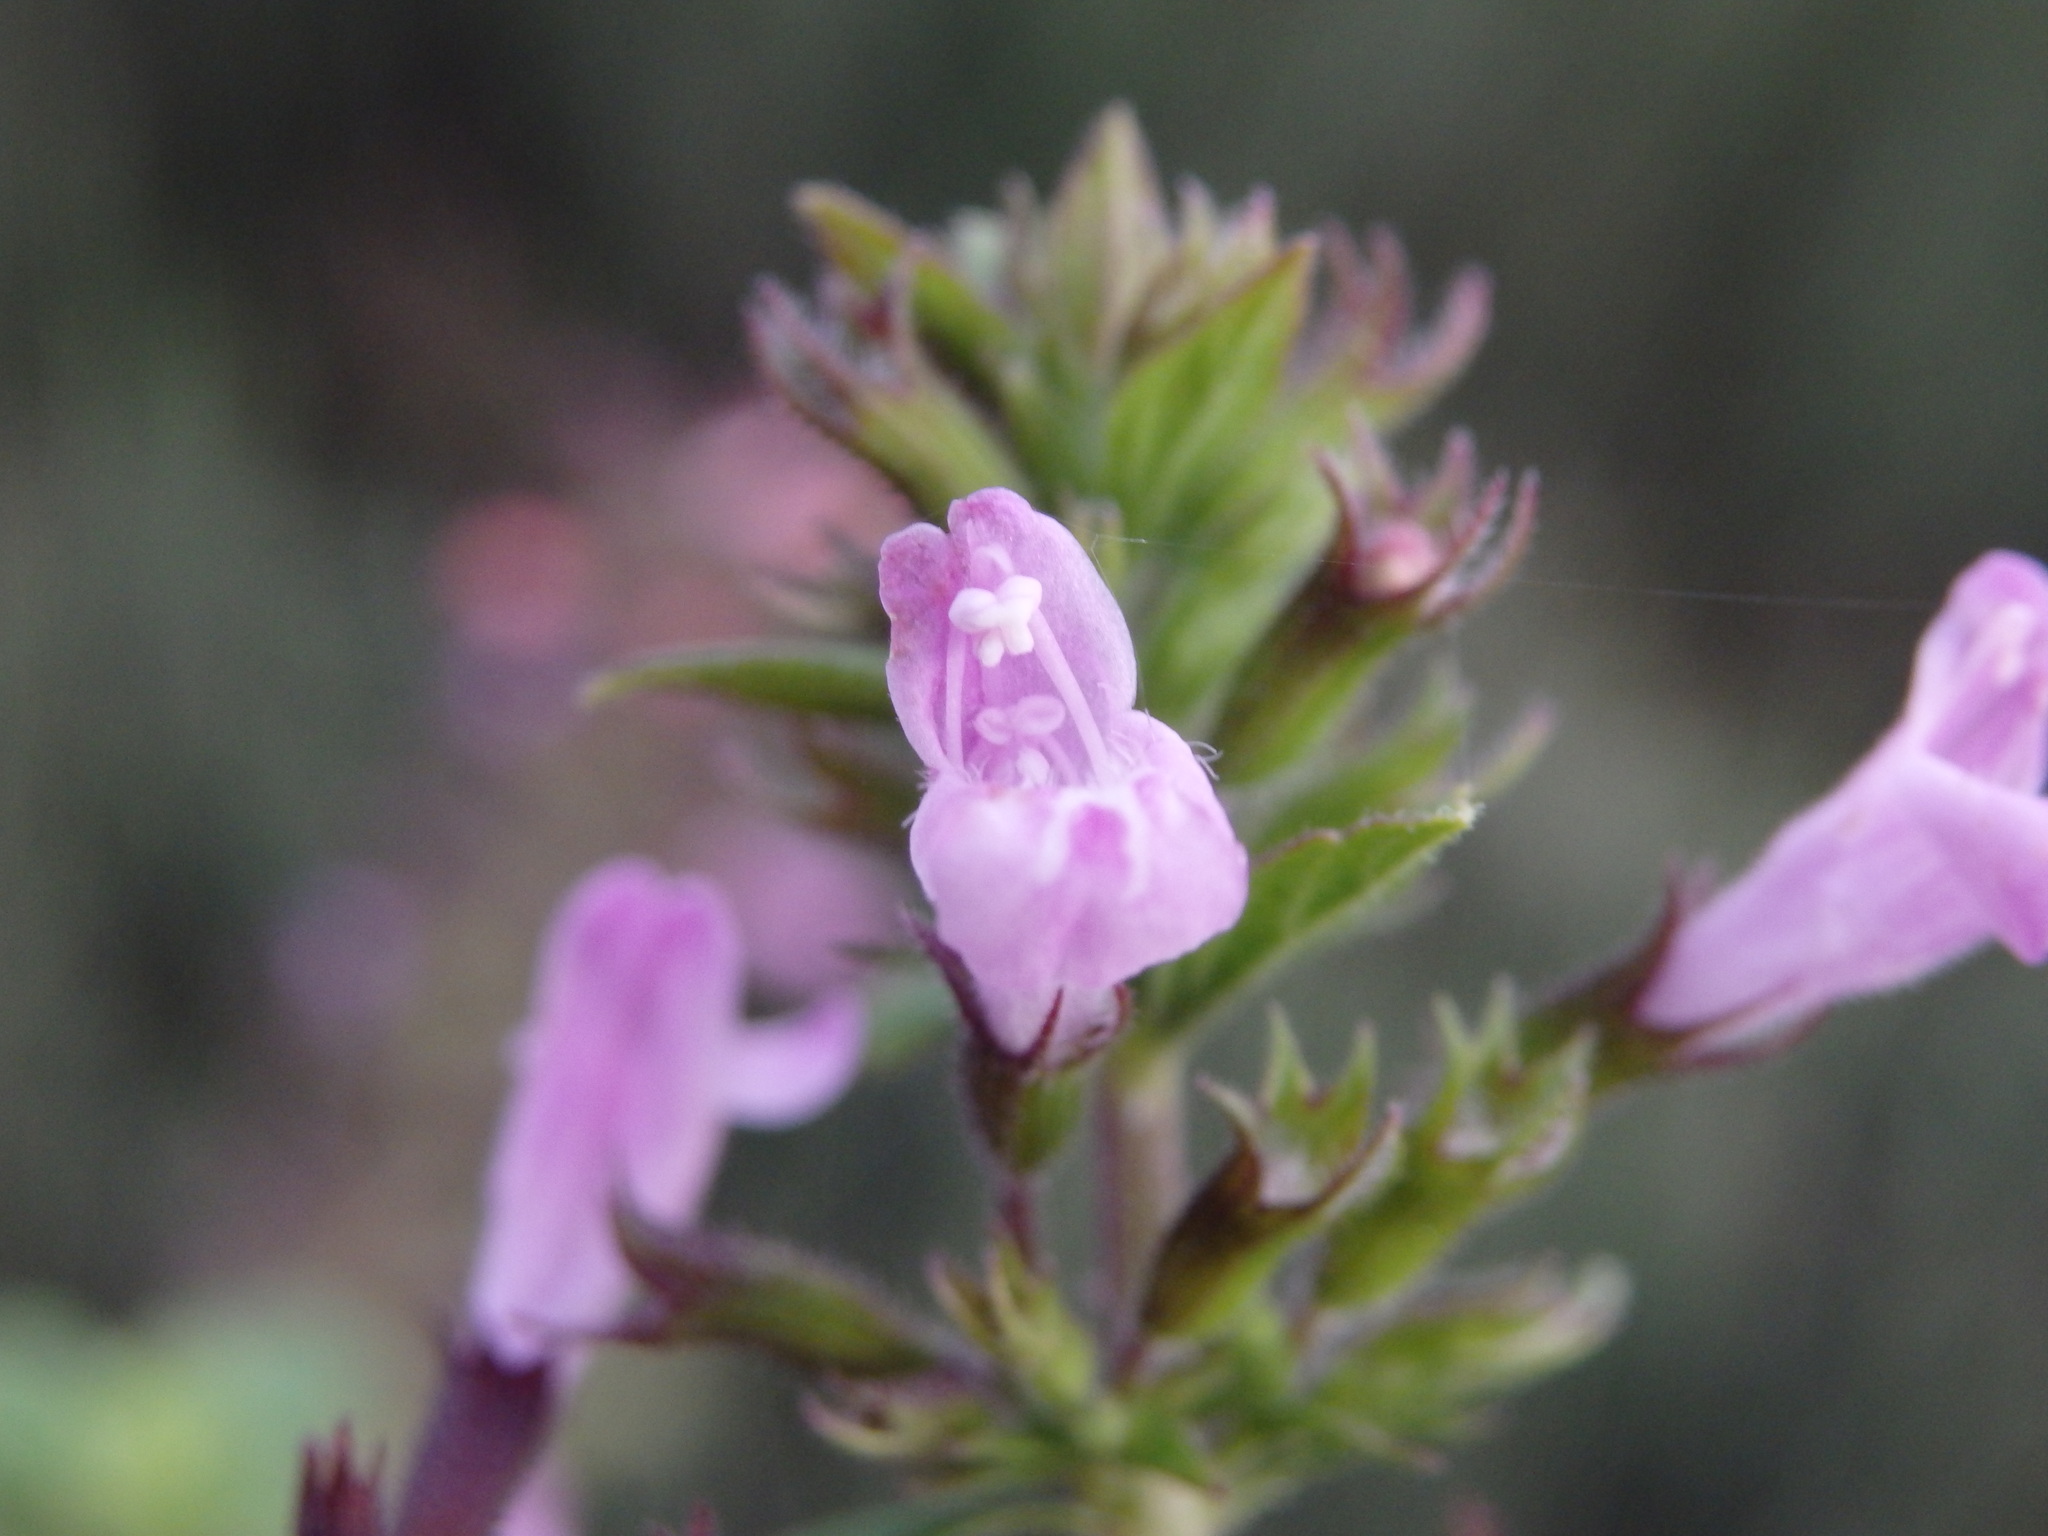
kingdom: Plantae
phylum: Tracheophyta
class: Magnoliopsida
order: Lamiales
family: Lamiaceae
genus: Clinopodium
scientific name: Clinopodium nepeta
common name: Lesser calamint
